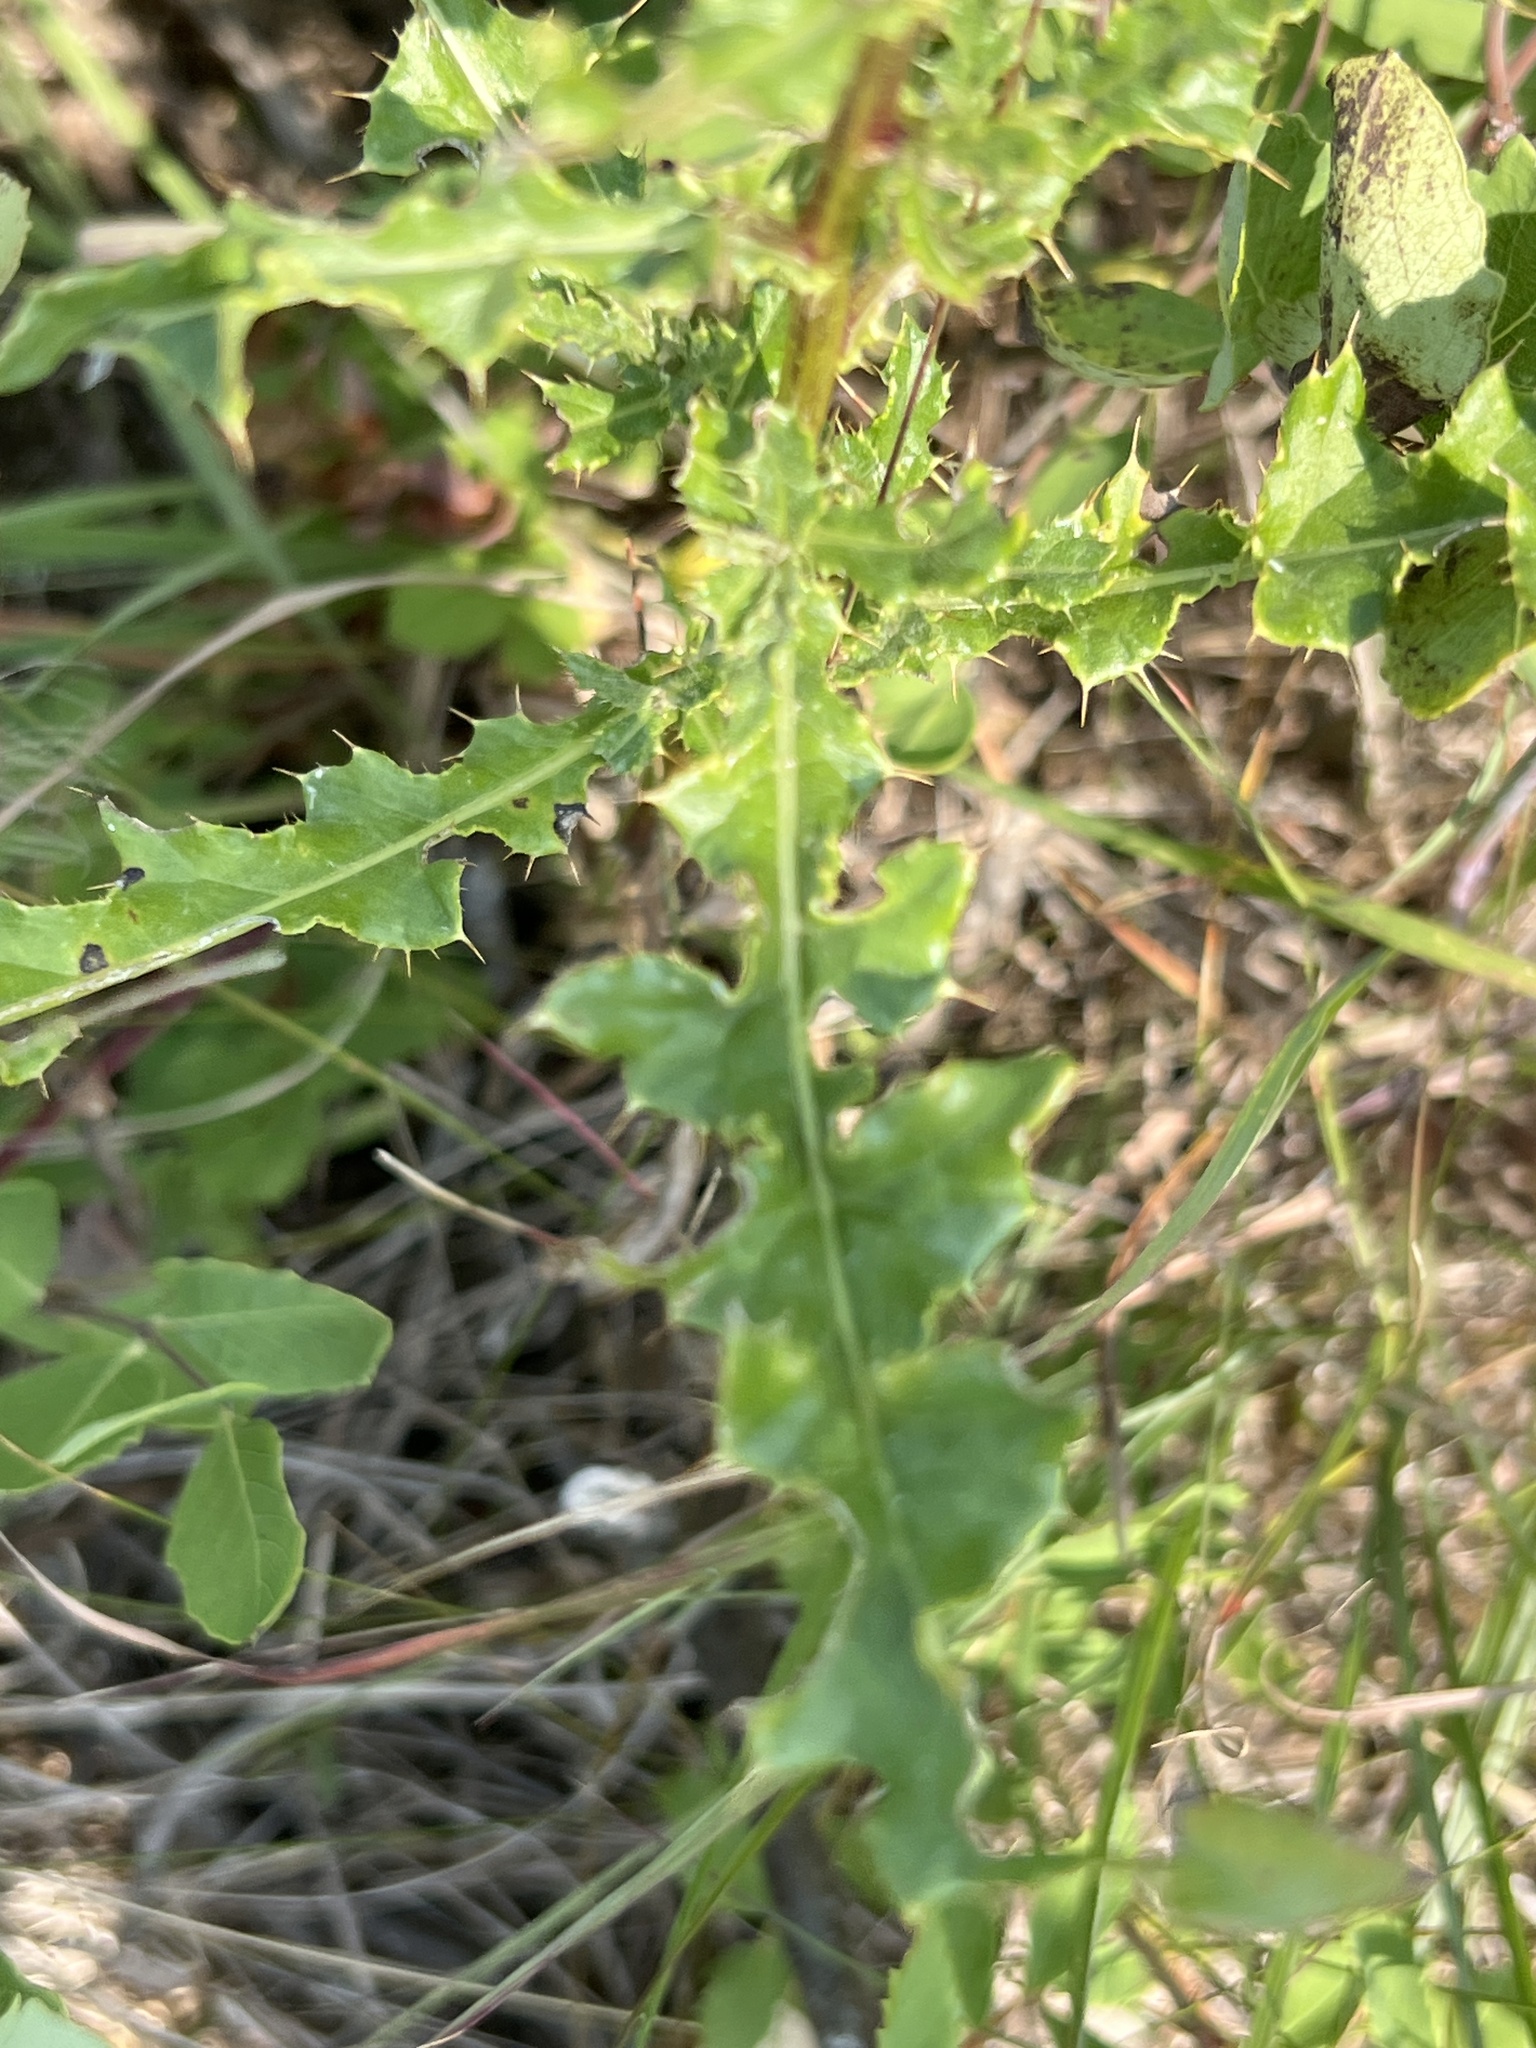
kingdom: Plantae
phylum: Tracheophyta
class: Magnoliopsida
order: Asterales
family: Asteraceae
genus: Cirsium
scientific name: Cirsium arvense
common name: Creeping thistle
